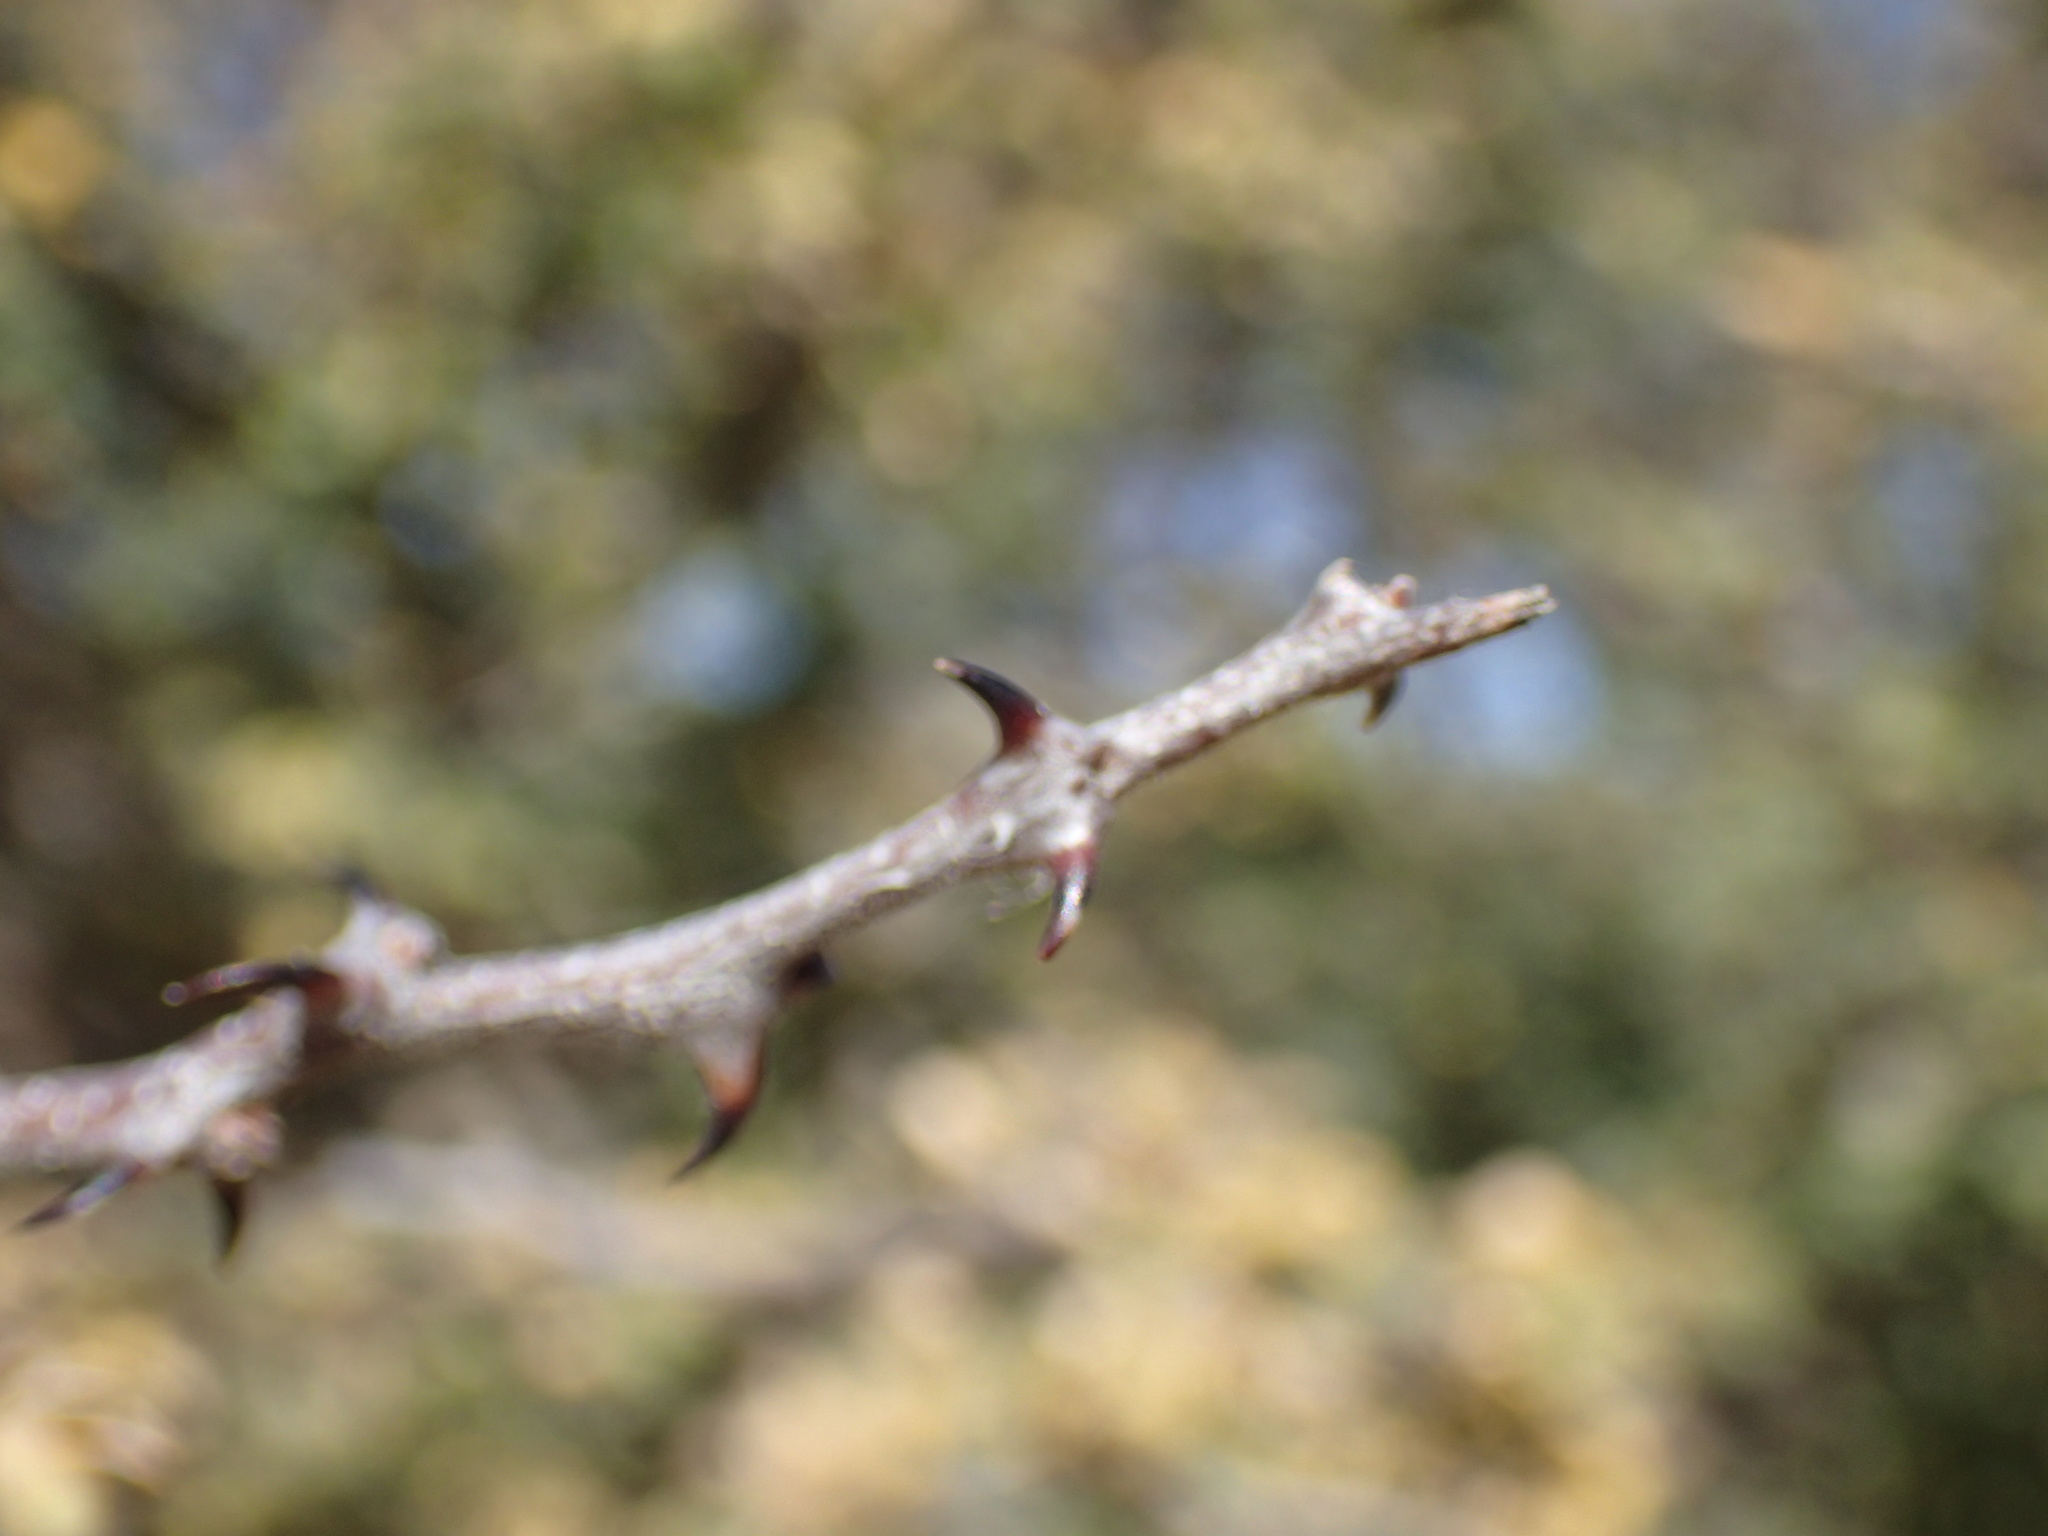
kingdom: Plantae
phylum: Tracheophyta
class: Magnoliopsida
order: Fabales
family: Fabaceae
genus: Senegalia
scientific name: Senegalia mellifera
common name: Hookthorn
